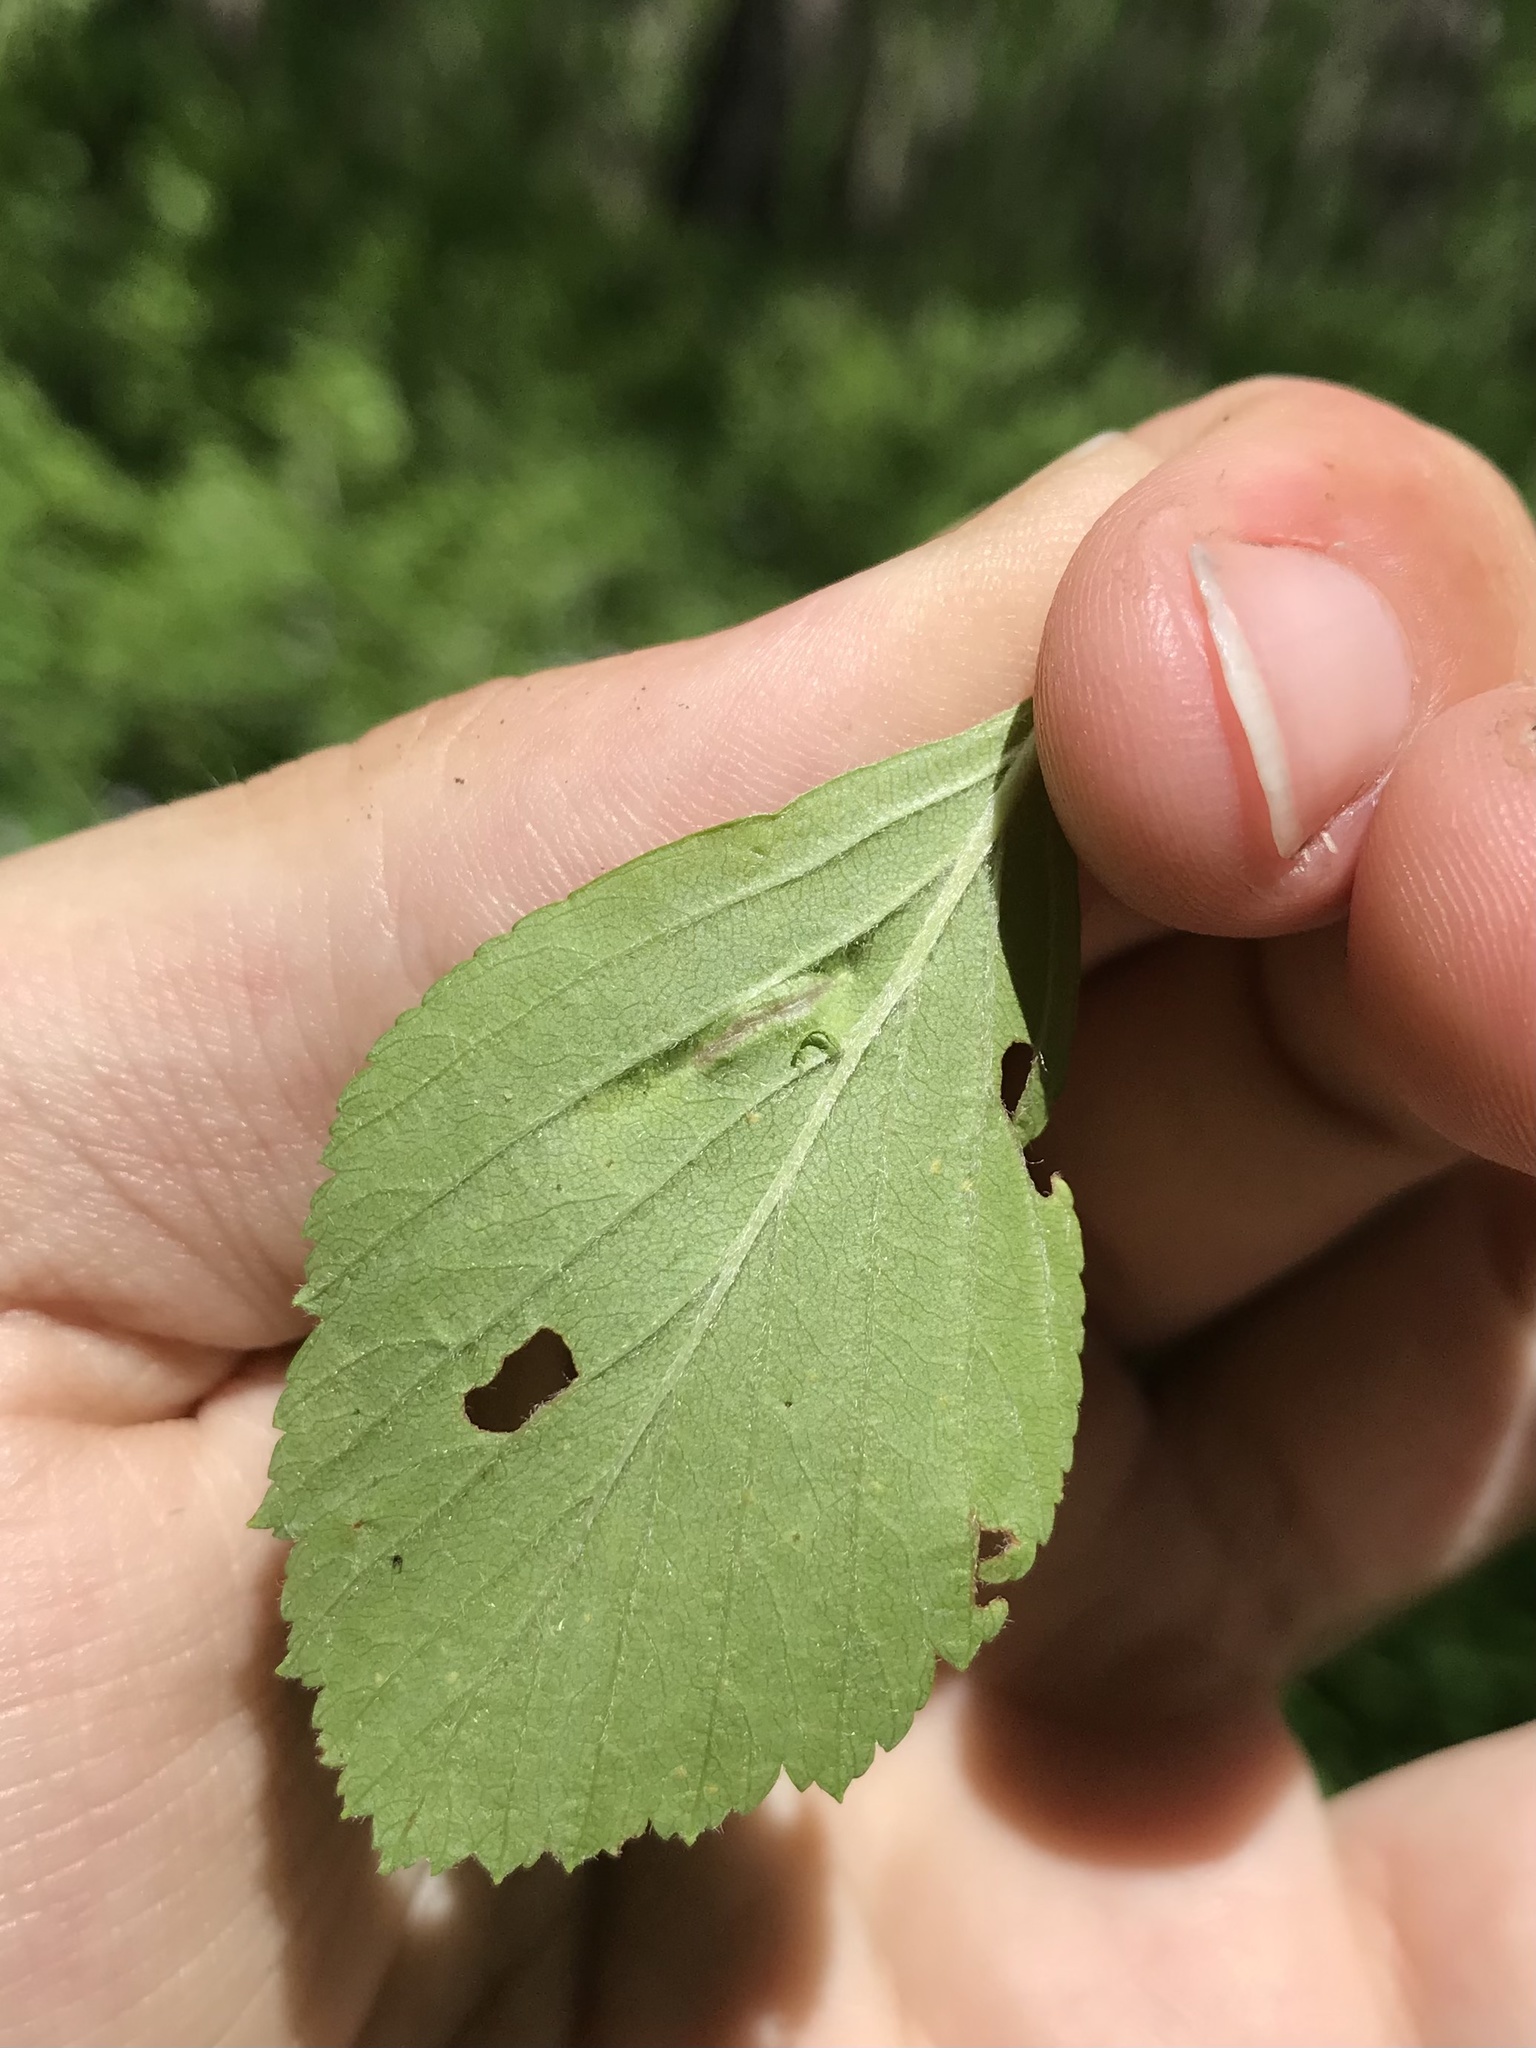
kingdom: Animalia
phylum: Arthropoda
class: Insecta
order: Diptera
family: Cecidomyiidae
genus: Blaesodiplosis
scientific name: Blaesodiplosis venae
